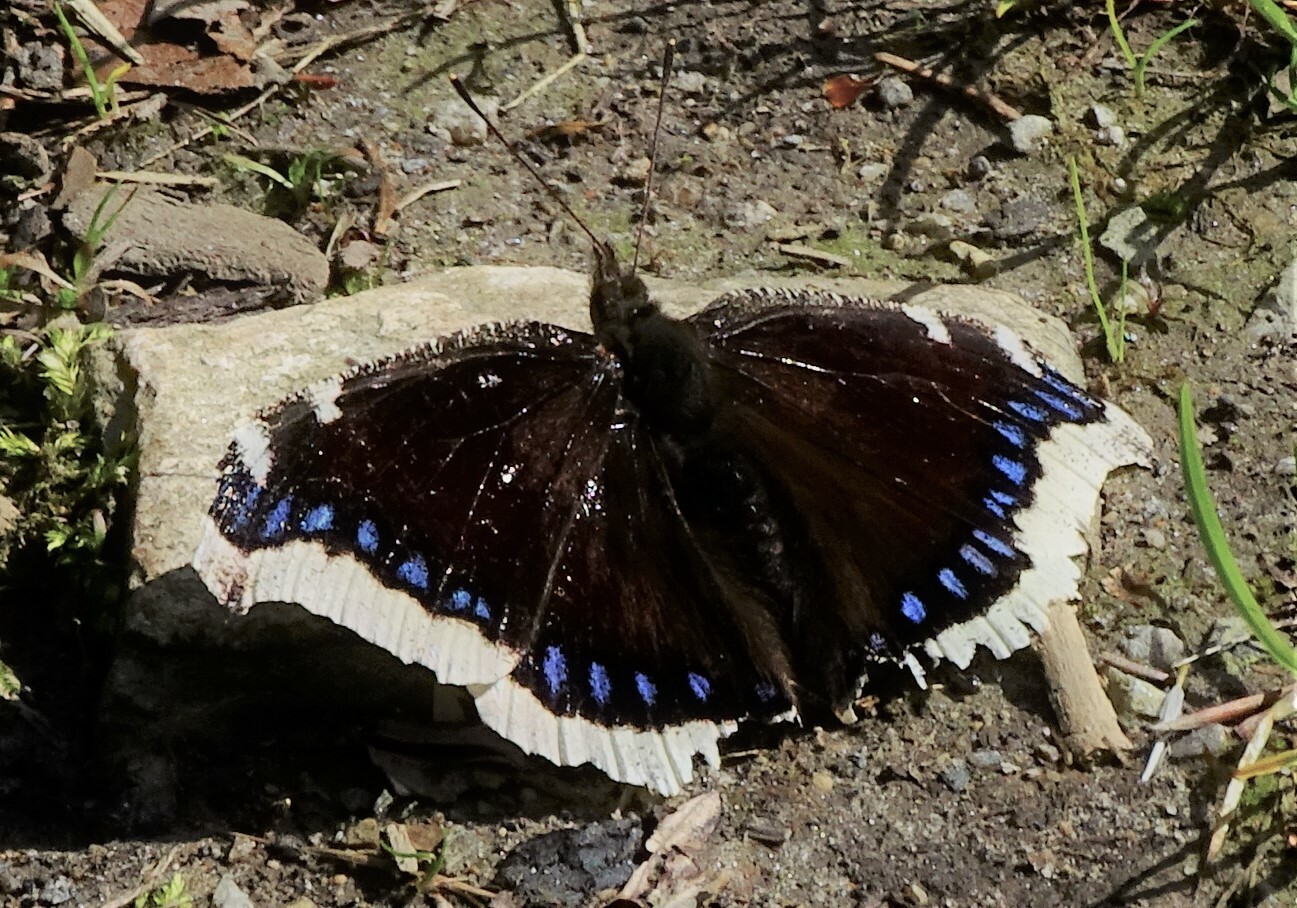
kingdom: Animalia
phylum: Arthropoda
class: Insecta
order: Lepidoptera
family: Nymphalidae
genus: Nymphalis
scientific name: Nymphalis antiopa
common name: Camberwell beauty
